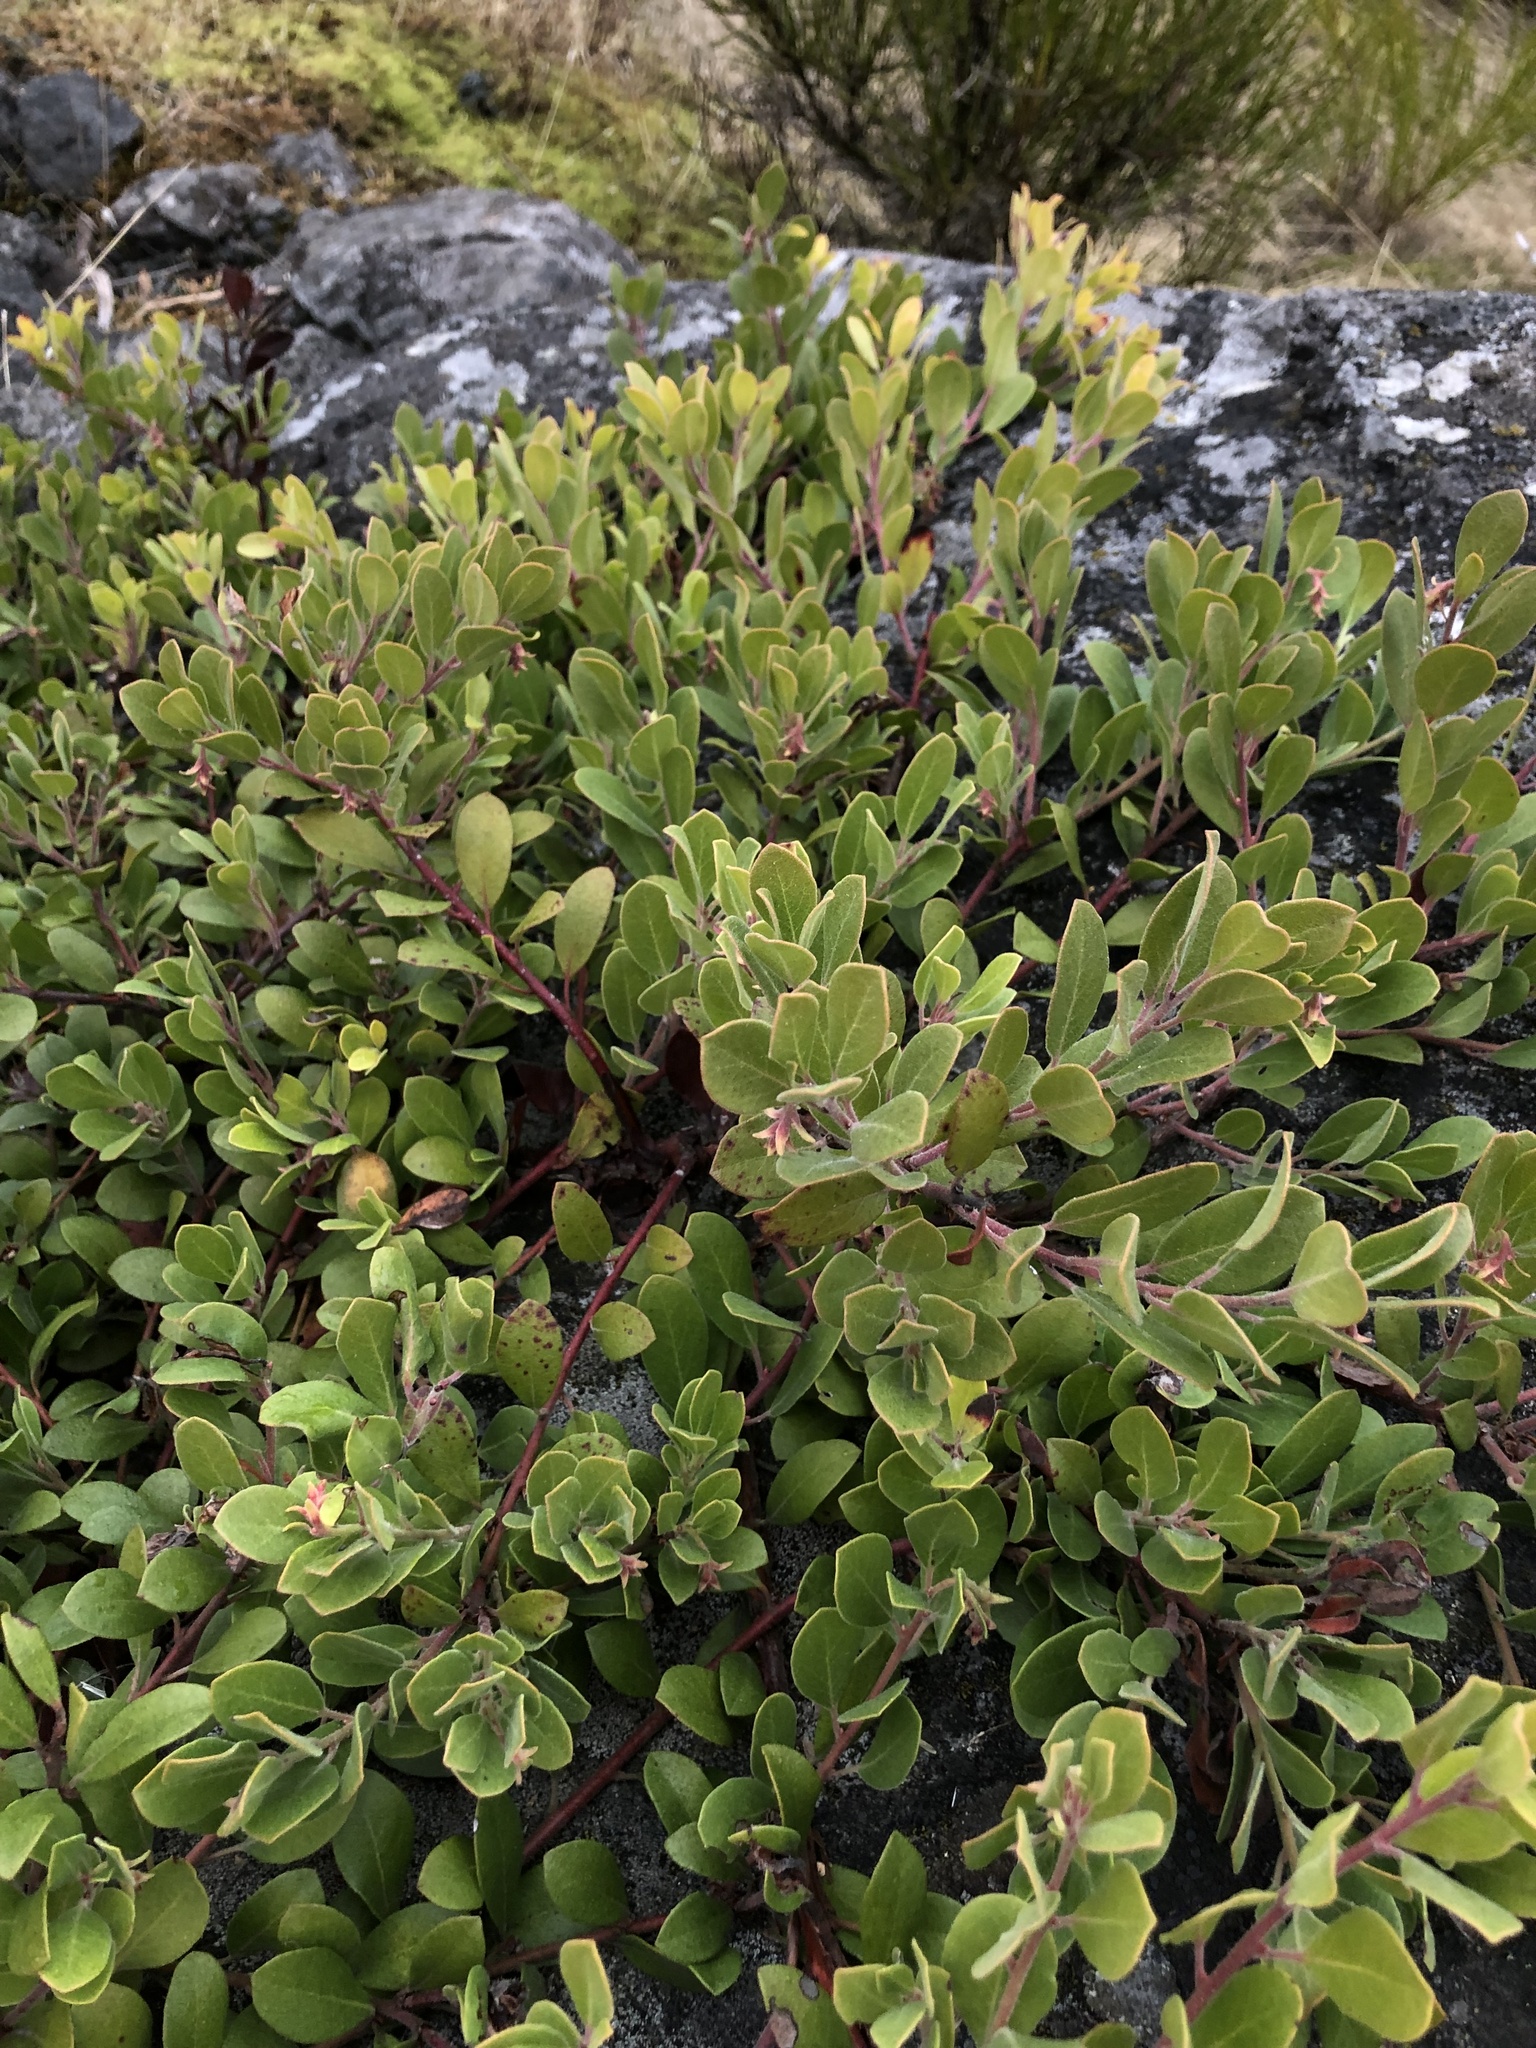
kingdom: Plantae
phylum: Tracheophyta
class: Magnoliopsida
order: Ericales
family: Ericaceae
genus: Arctostaphylos
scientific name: Arctostaphylos media
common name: Hybrid manzanita
